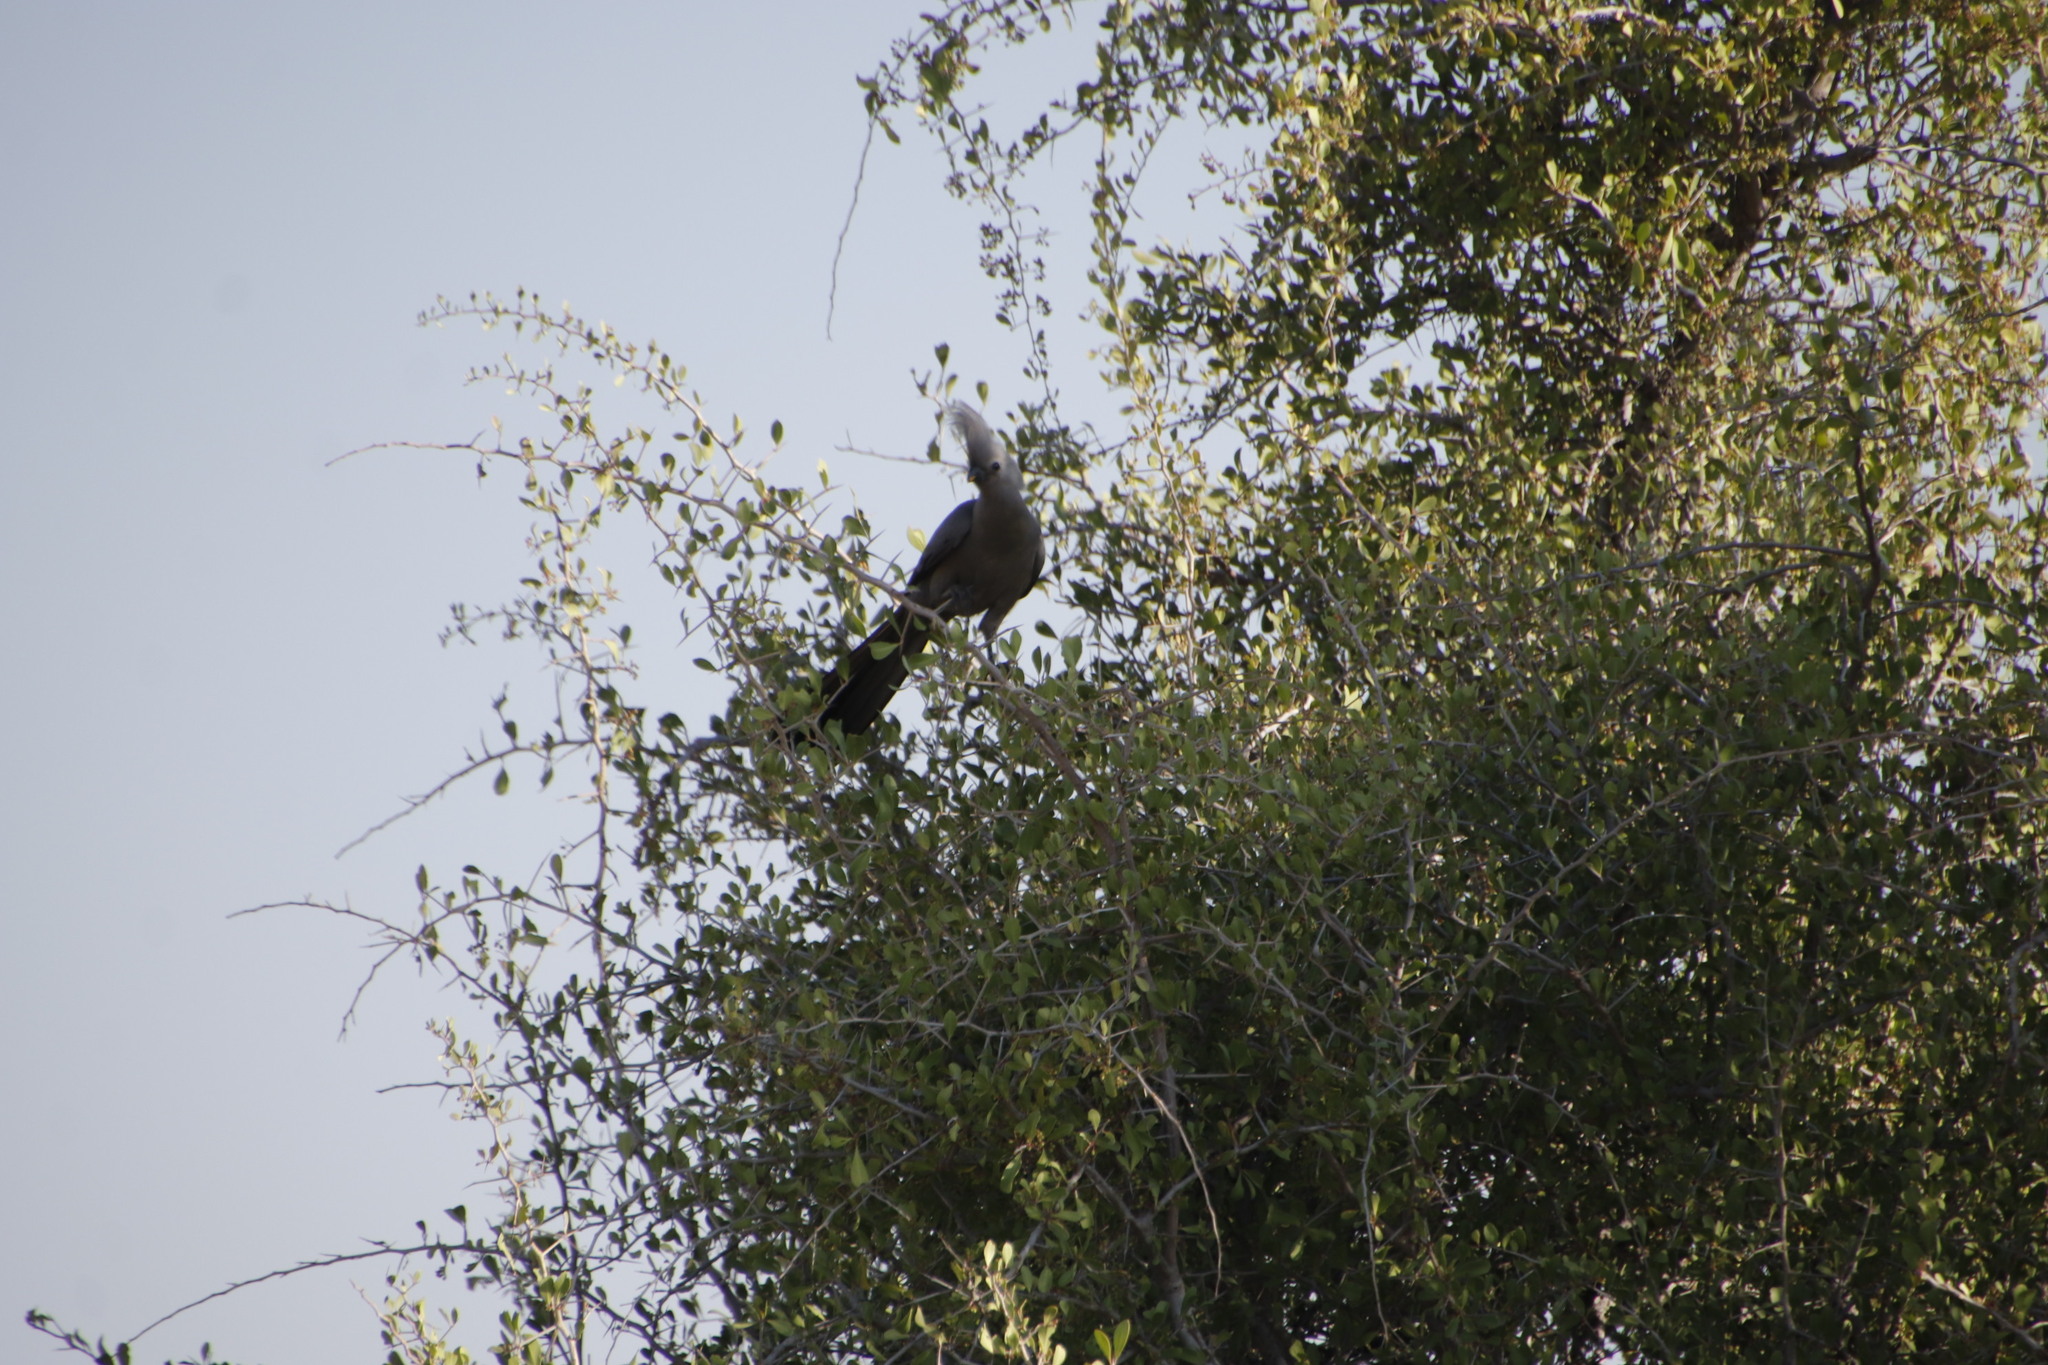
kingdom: Animalia
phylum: Chordata
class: Aves
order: Musophagiformes
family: Musophagidae
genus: Corythaixoides
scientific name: Corythaixoides concolor
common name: Grey go-away-bird
